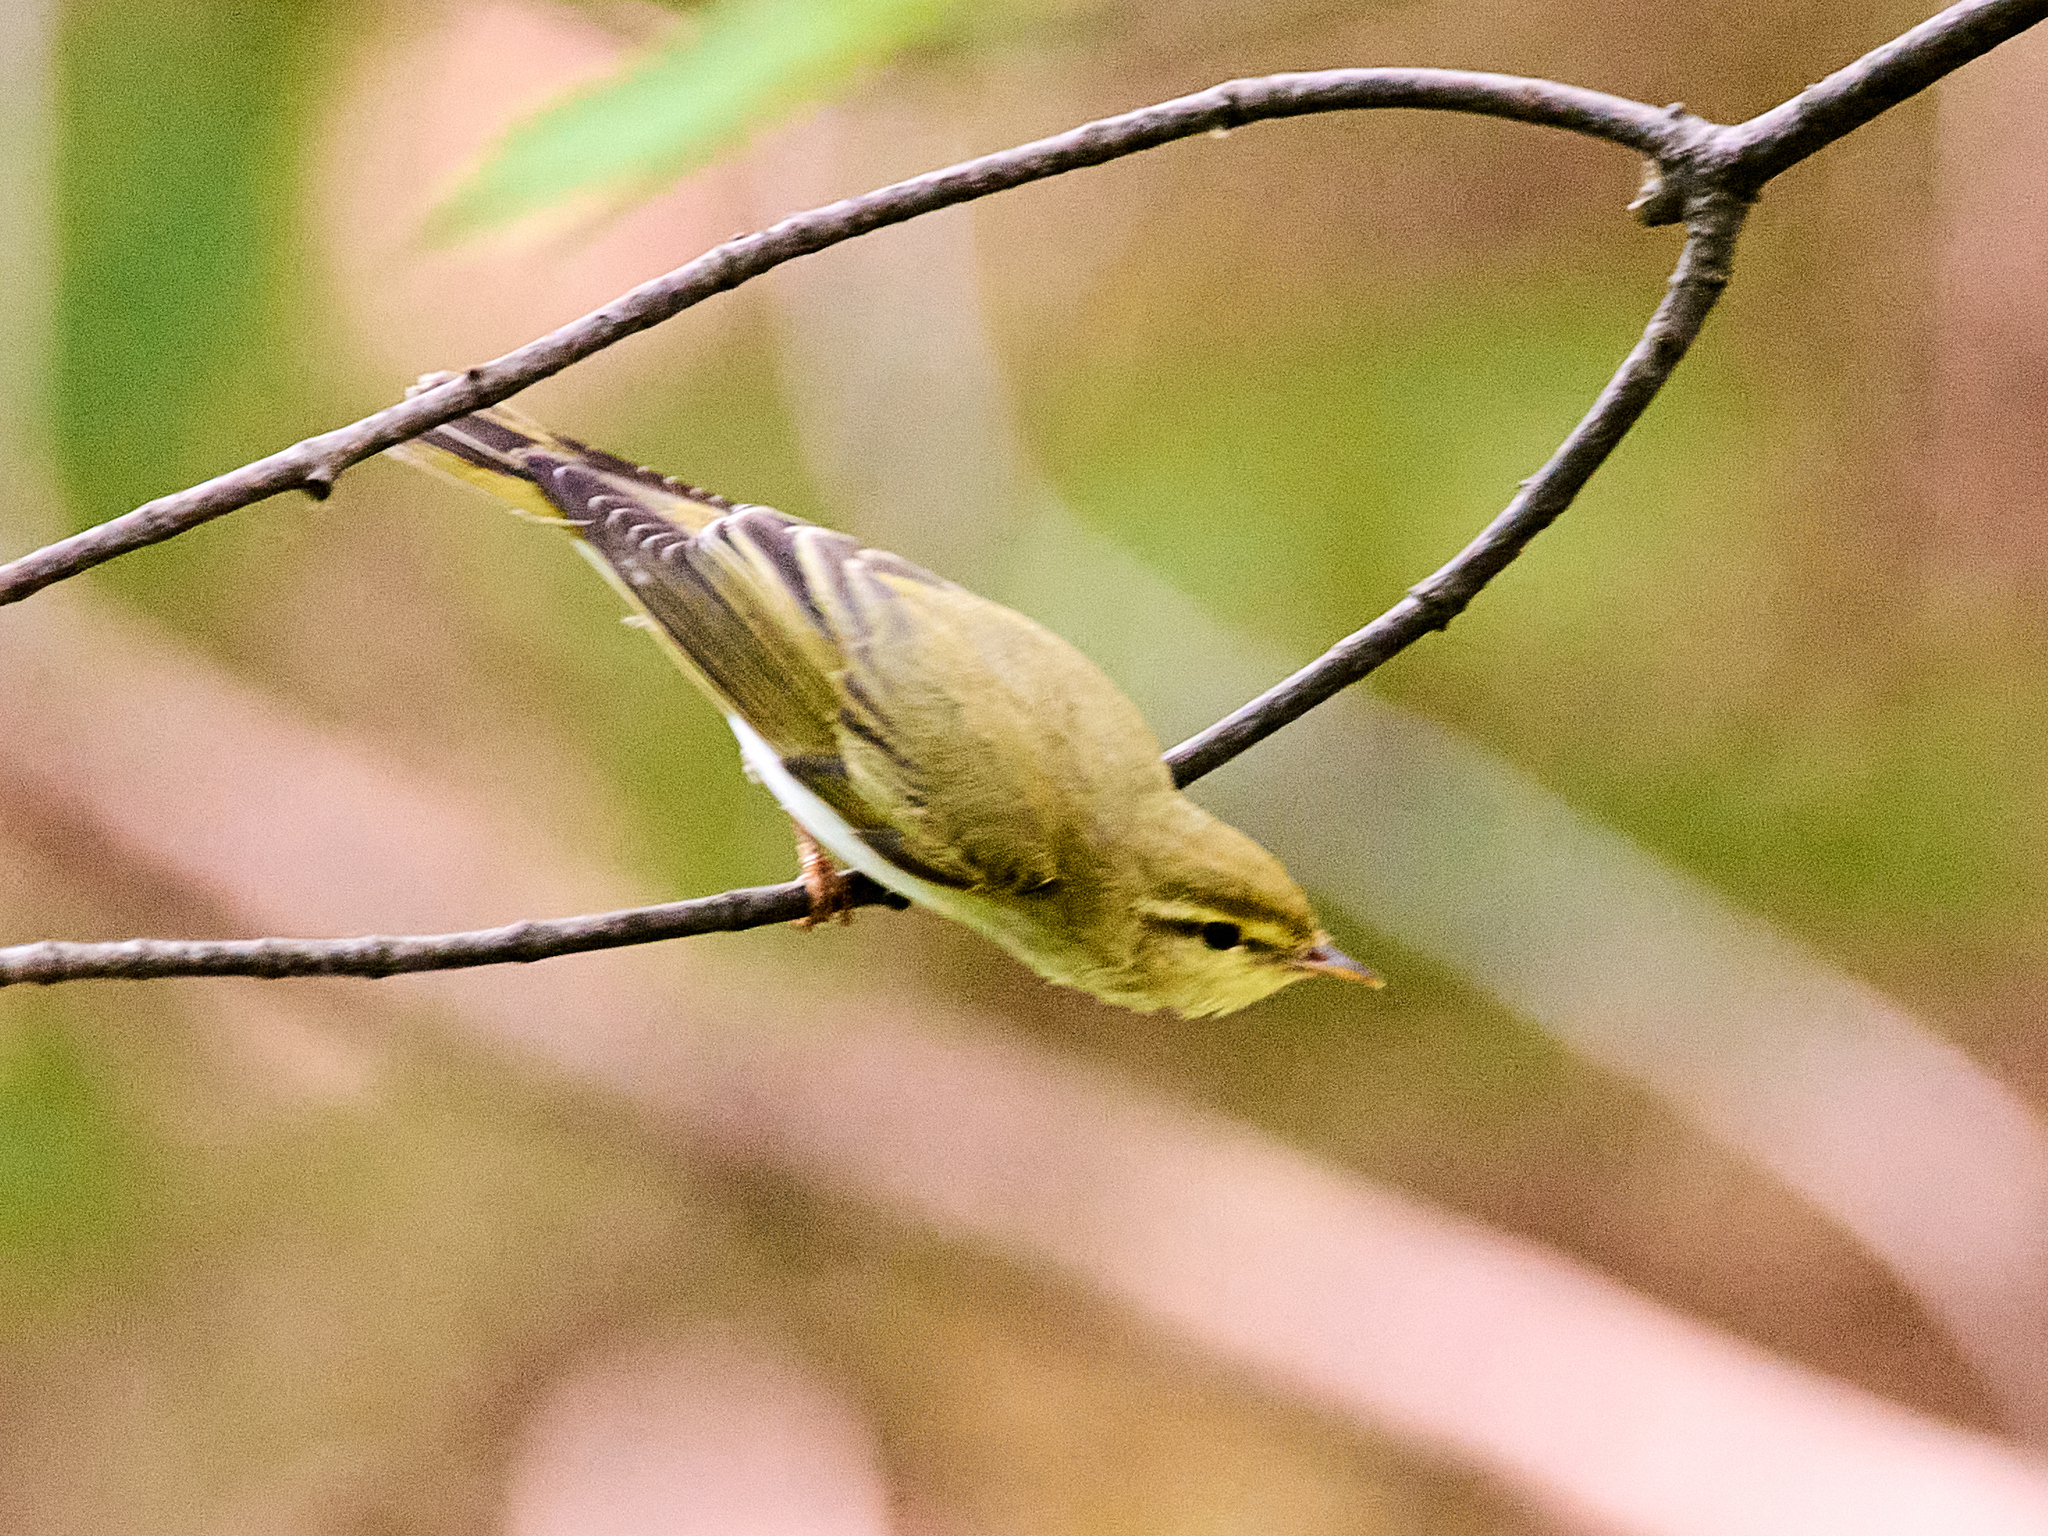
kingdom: Animalia
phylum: Chordata
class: Aves
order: Passeriformes
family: Phylloscopidae
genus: Phylloscopus
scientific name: Phylloscopus sibillatrix
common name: Wood warbler
